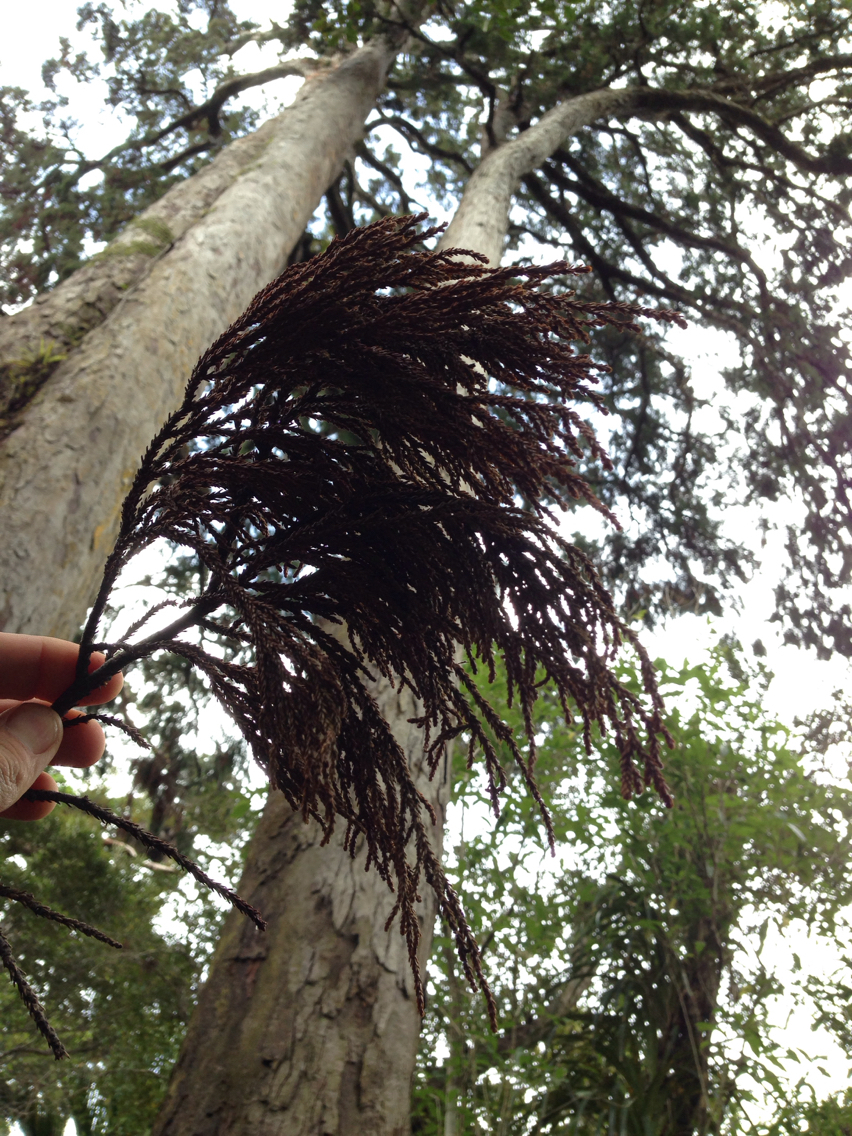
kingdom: Plantae
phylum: Tracheophyta
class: Pinopsida
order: Pinales
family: Podocarpaceae
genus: Dacrydium
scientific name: Dacrydium cupressinum
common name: Red pine
